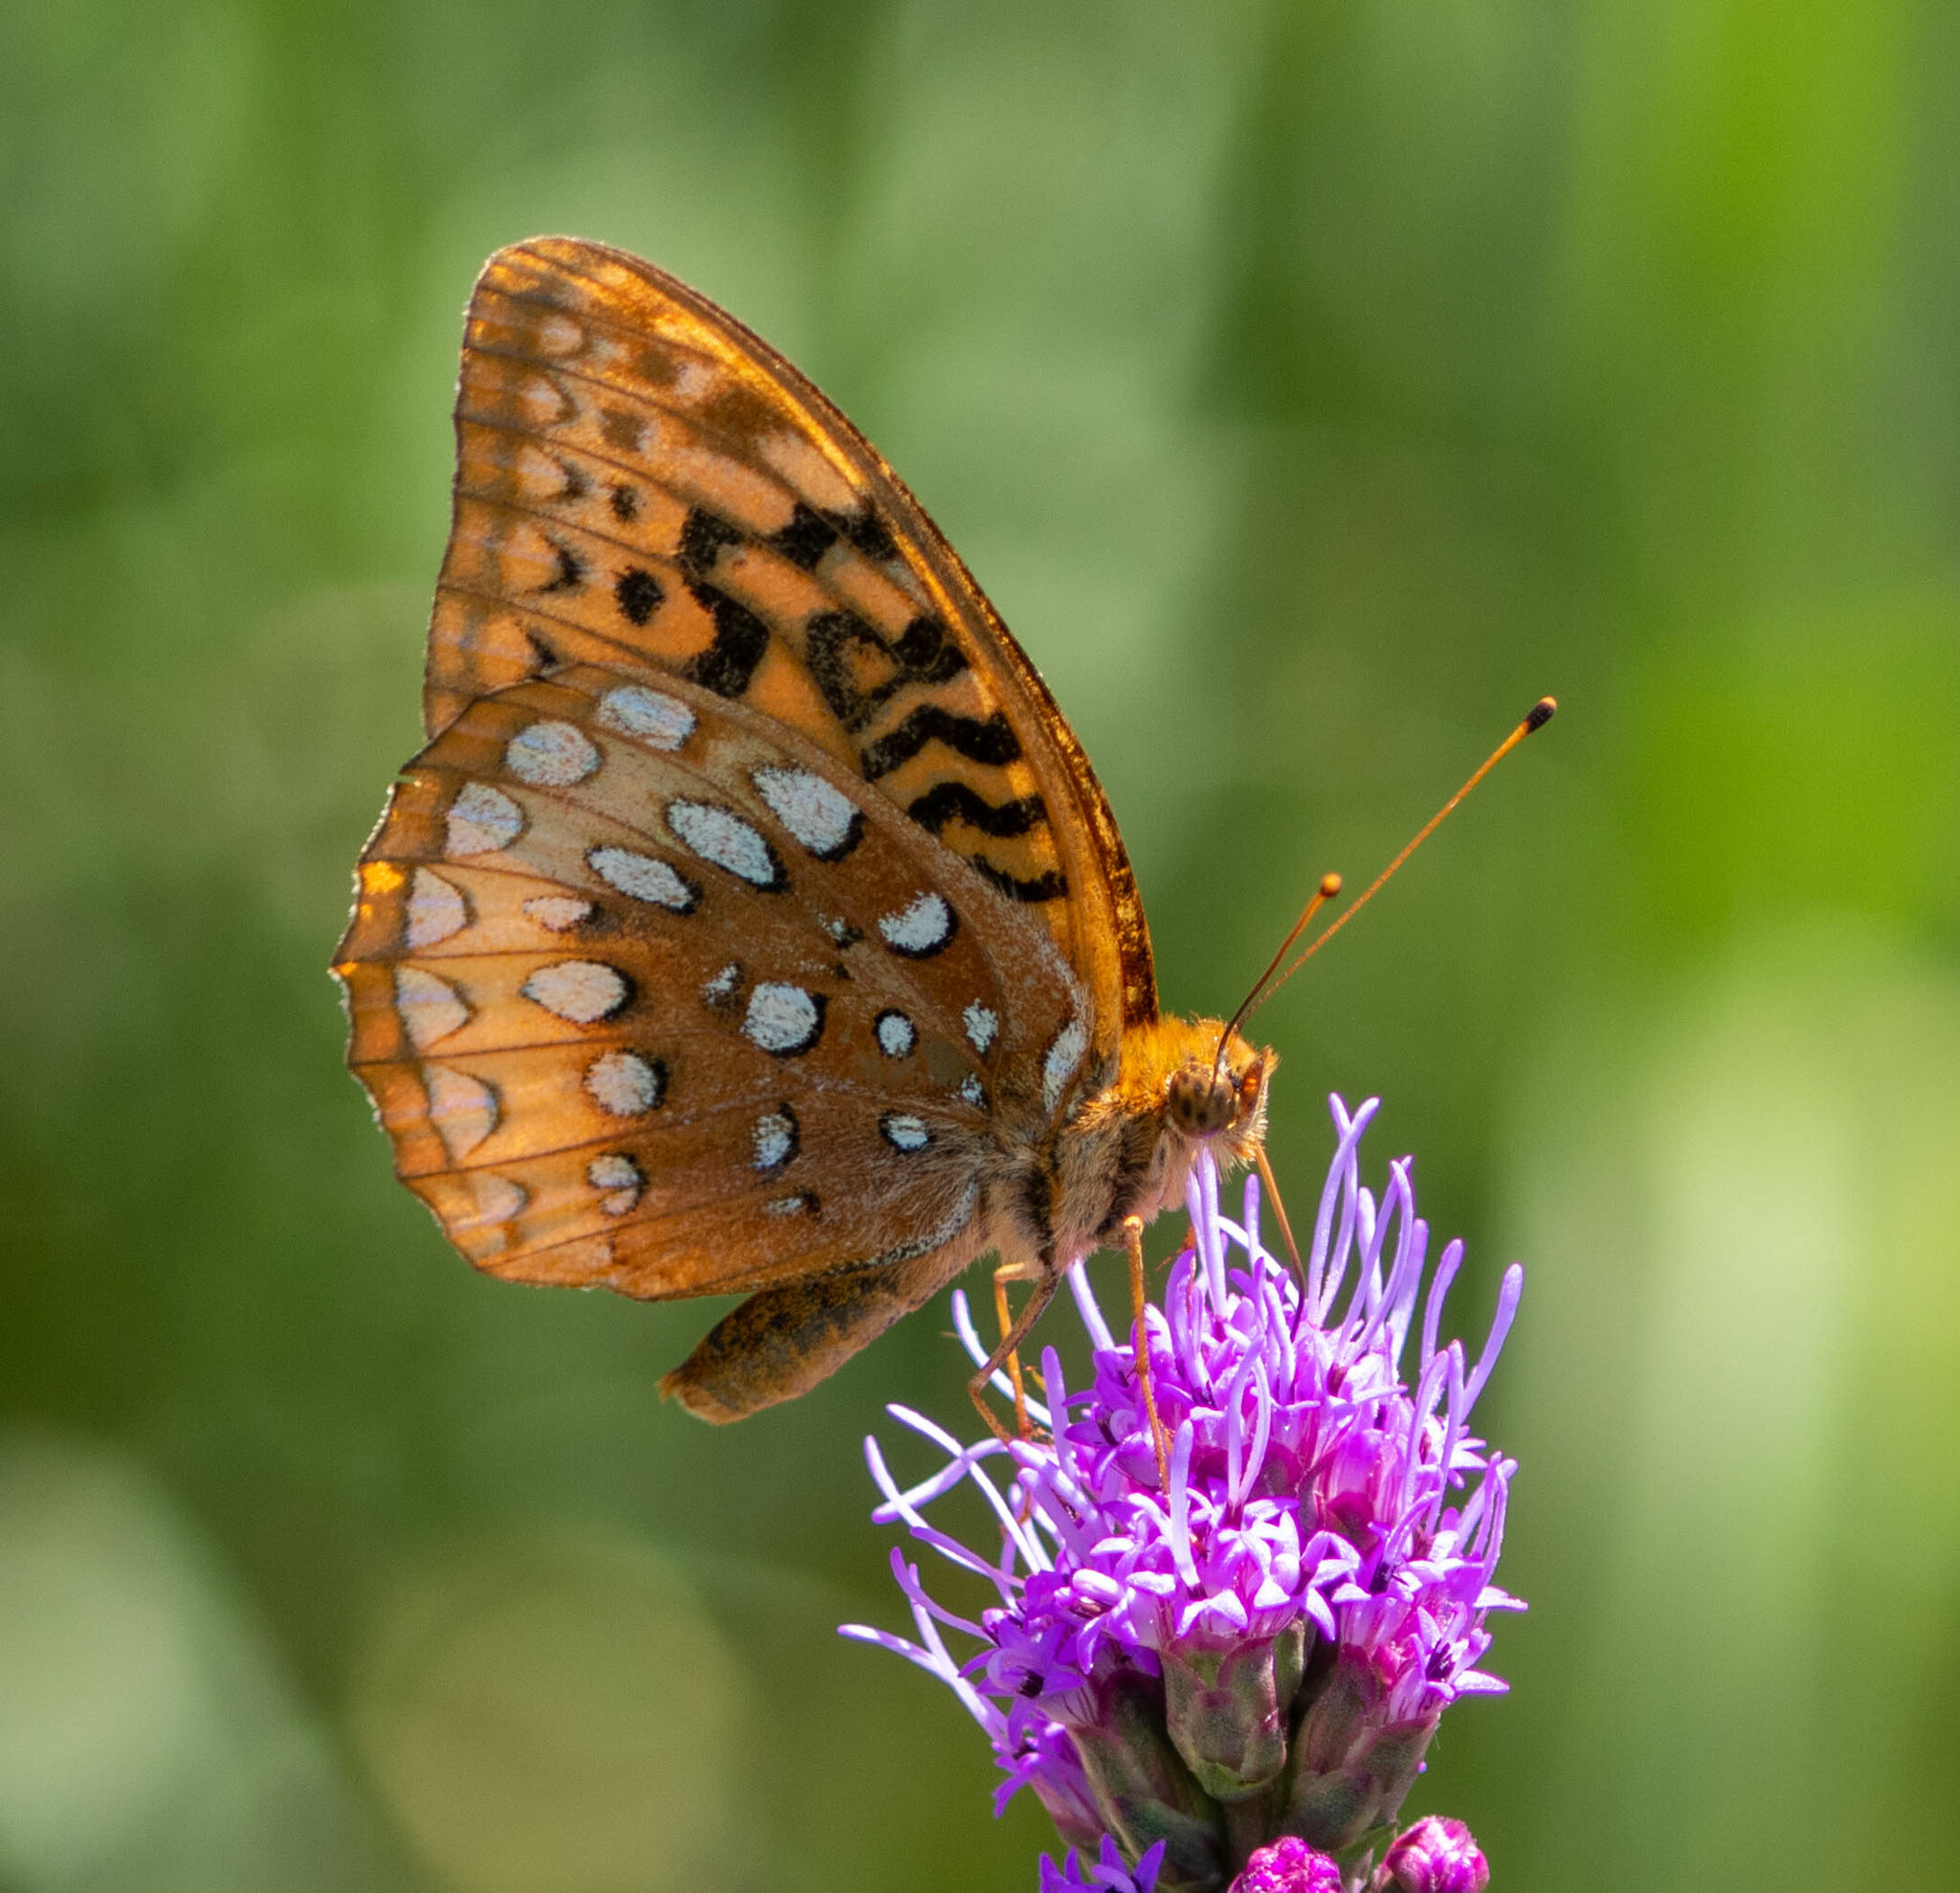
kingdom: Animalia
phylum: Arthropoda
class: Insecta
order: Lepidoptera
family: Nymphalidae
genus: Speyeria
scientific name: Speyeria cybele
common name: Great spangled fritillary
